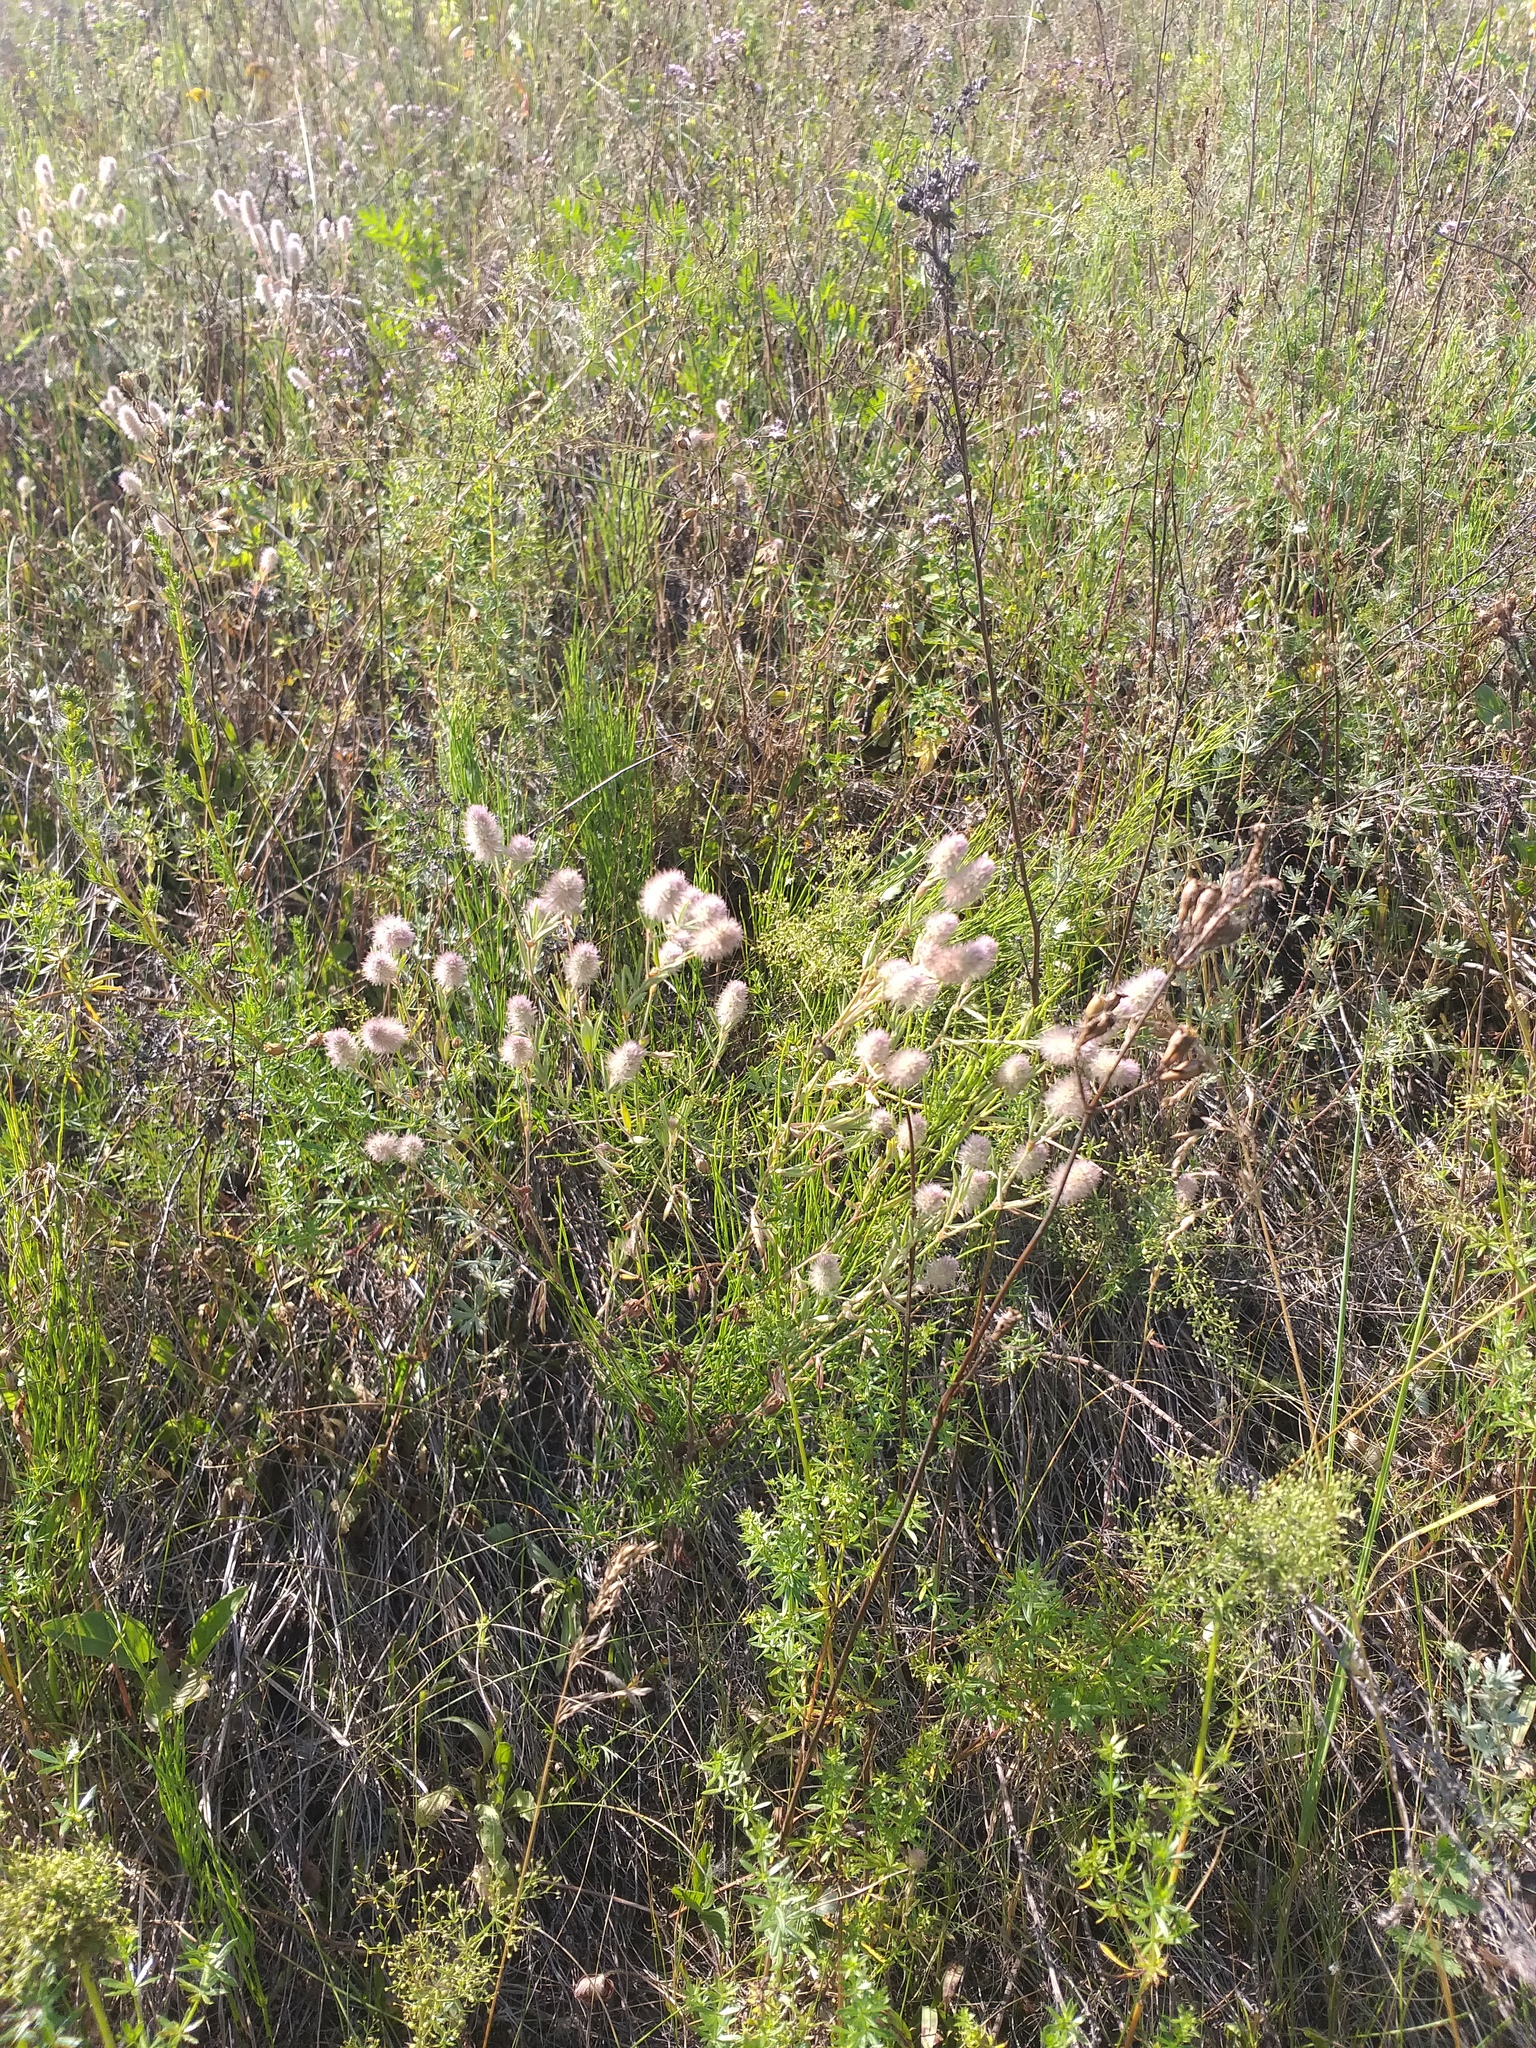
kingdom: Plantae
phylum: Tracheophyta
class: Magnoliopsida
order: Fabales
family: Fabaceae
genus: Trifolium
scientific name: Trifolium arvense
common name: Hare's-foot clover
